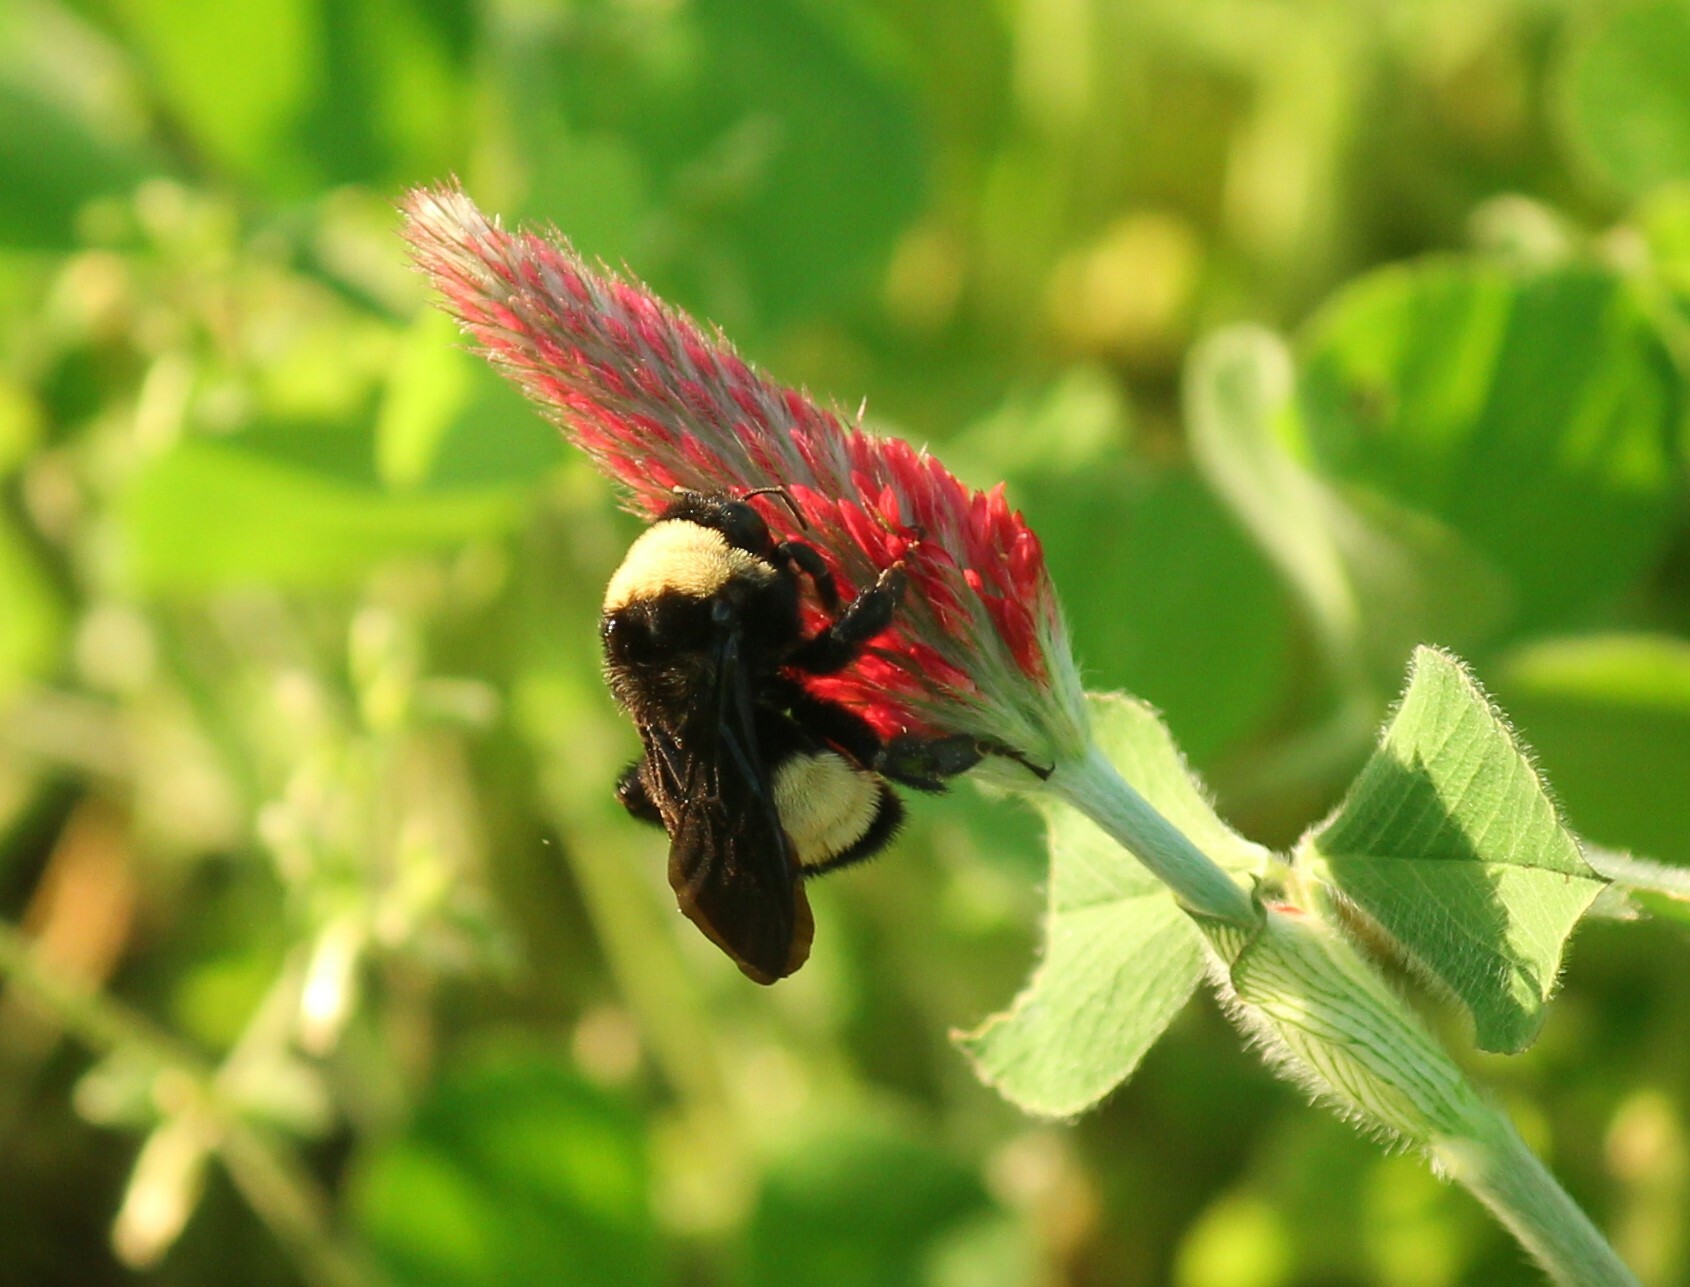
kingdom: Animalia
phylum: Arthropoda
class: Insecta
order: Hymenoptera
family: Apidae
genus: Bombus
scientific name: Bombus pensylvanicus
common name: Bumble bee
